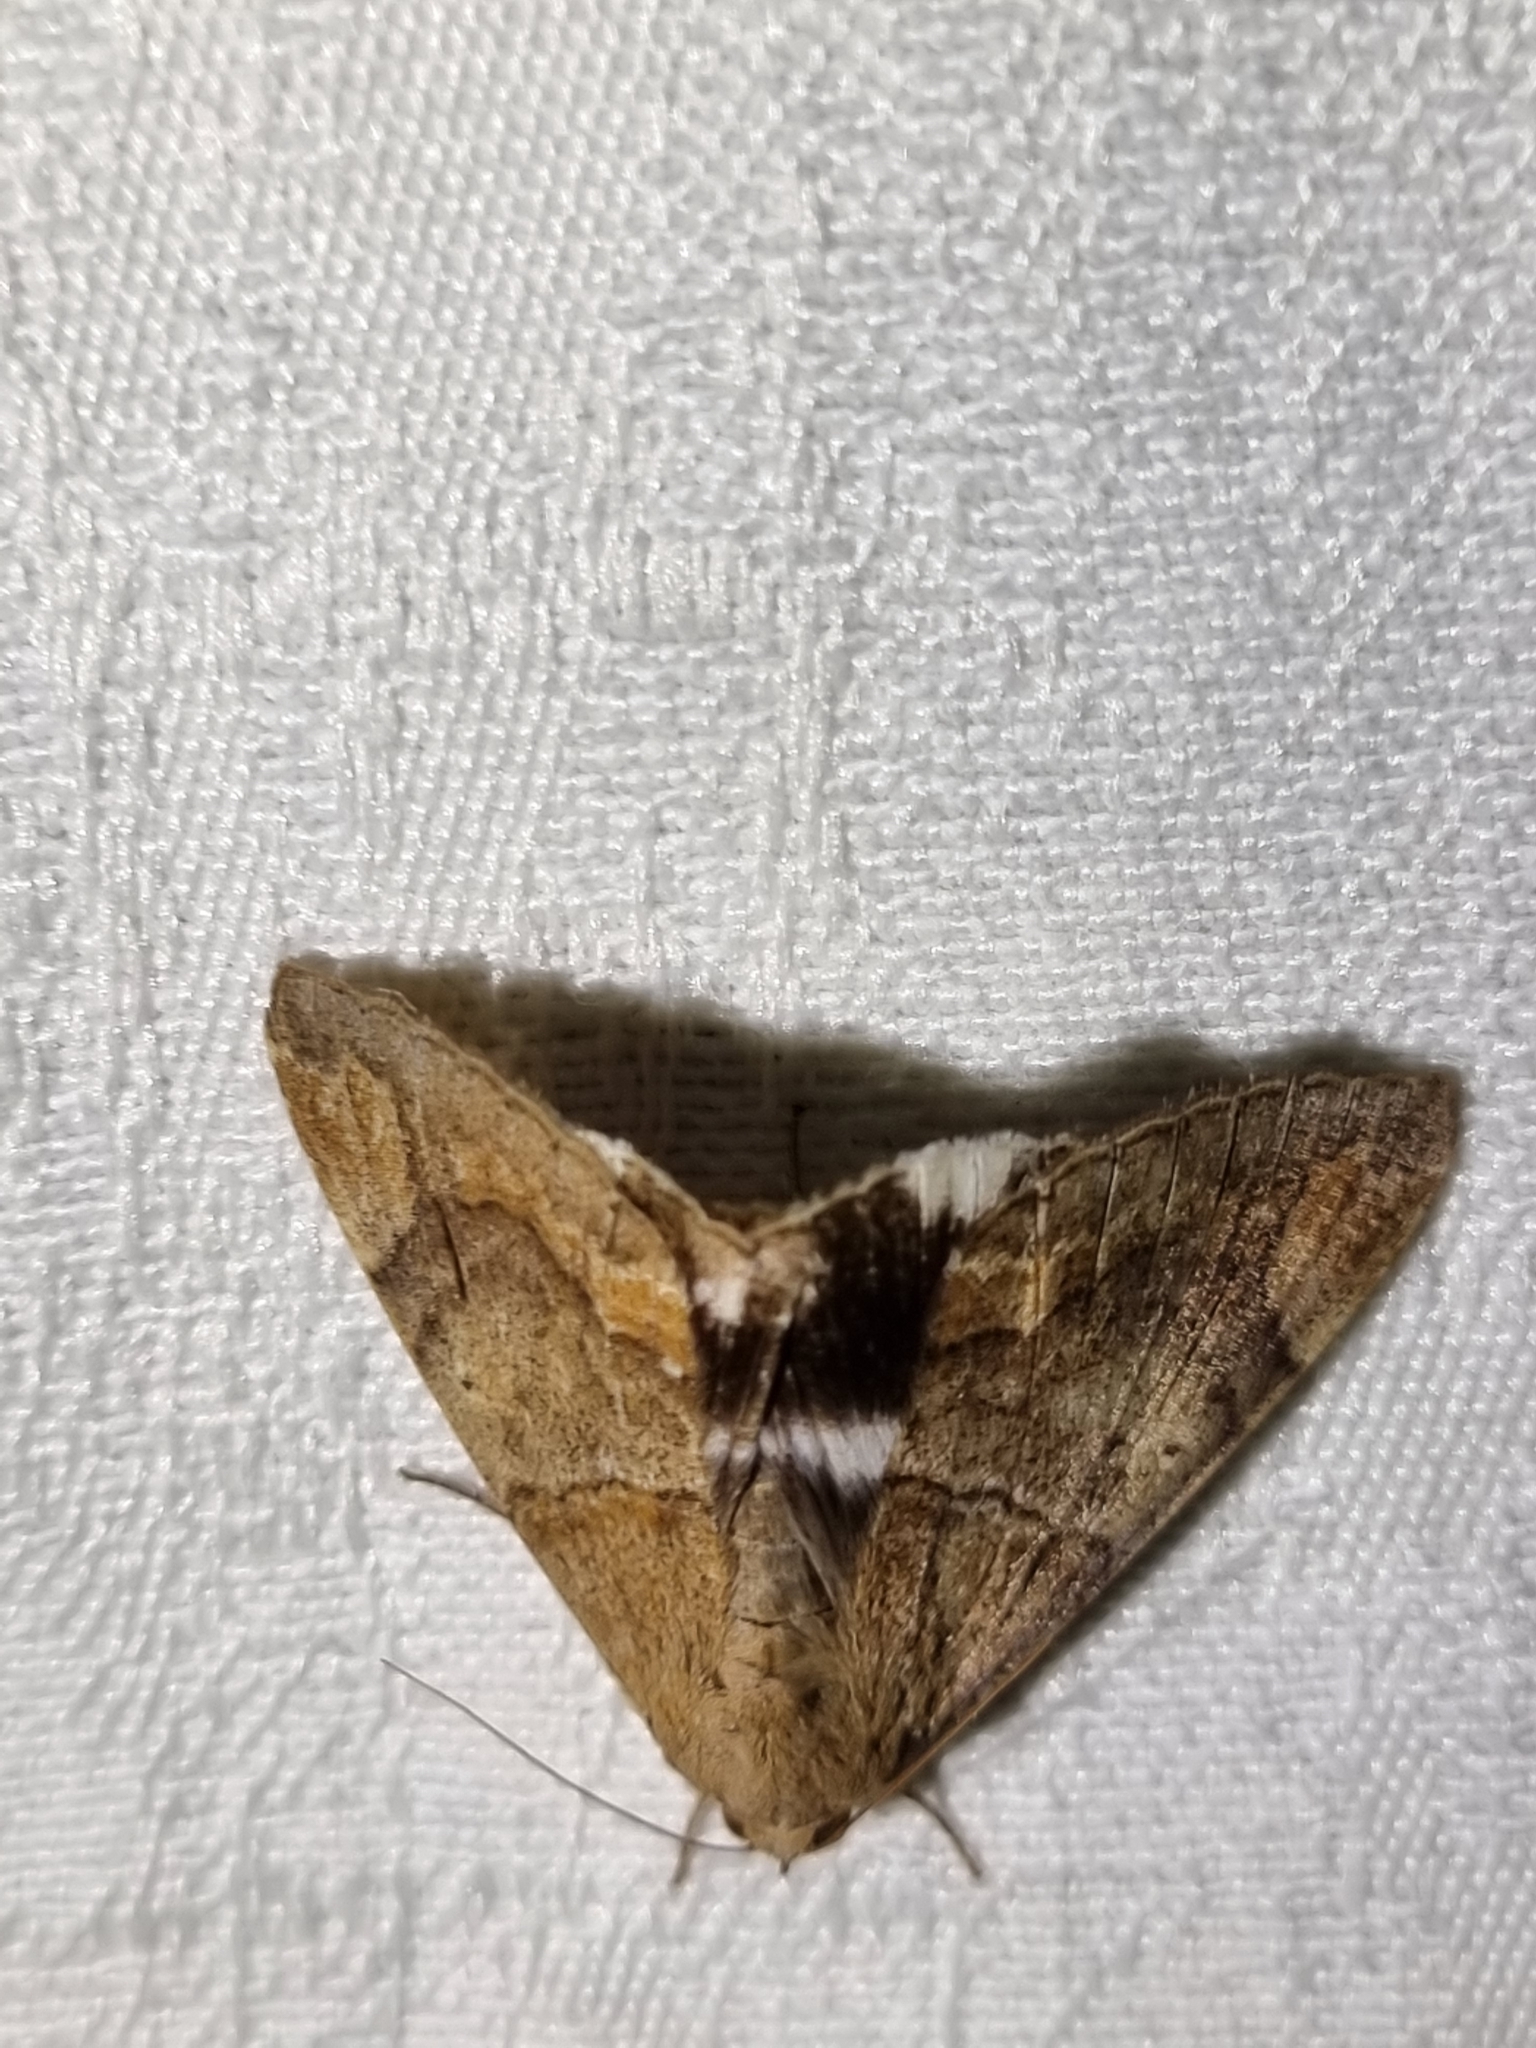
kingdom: Animalia
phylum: Arthropoda
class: Insecta
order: Lepidoptera
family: Erebidae
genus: Achaea
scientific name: Achaea janata
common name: Croton caterpillar
